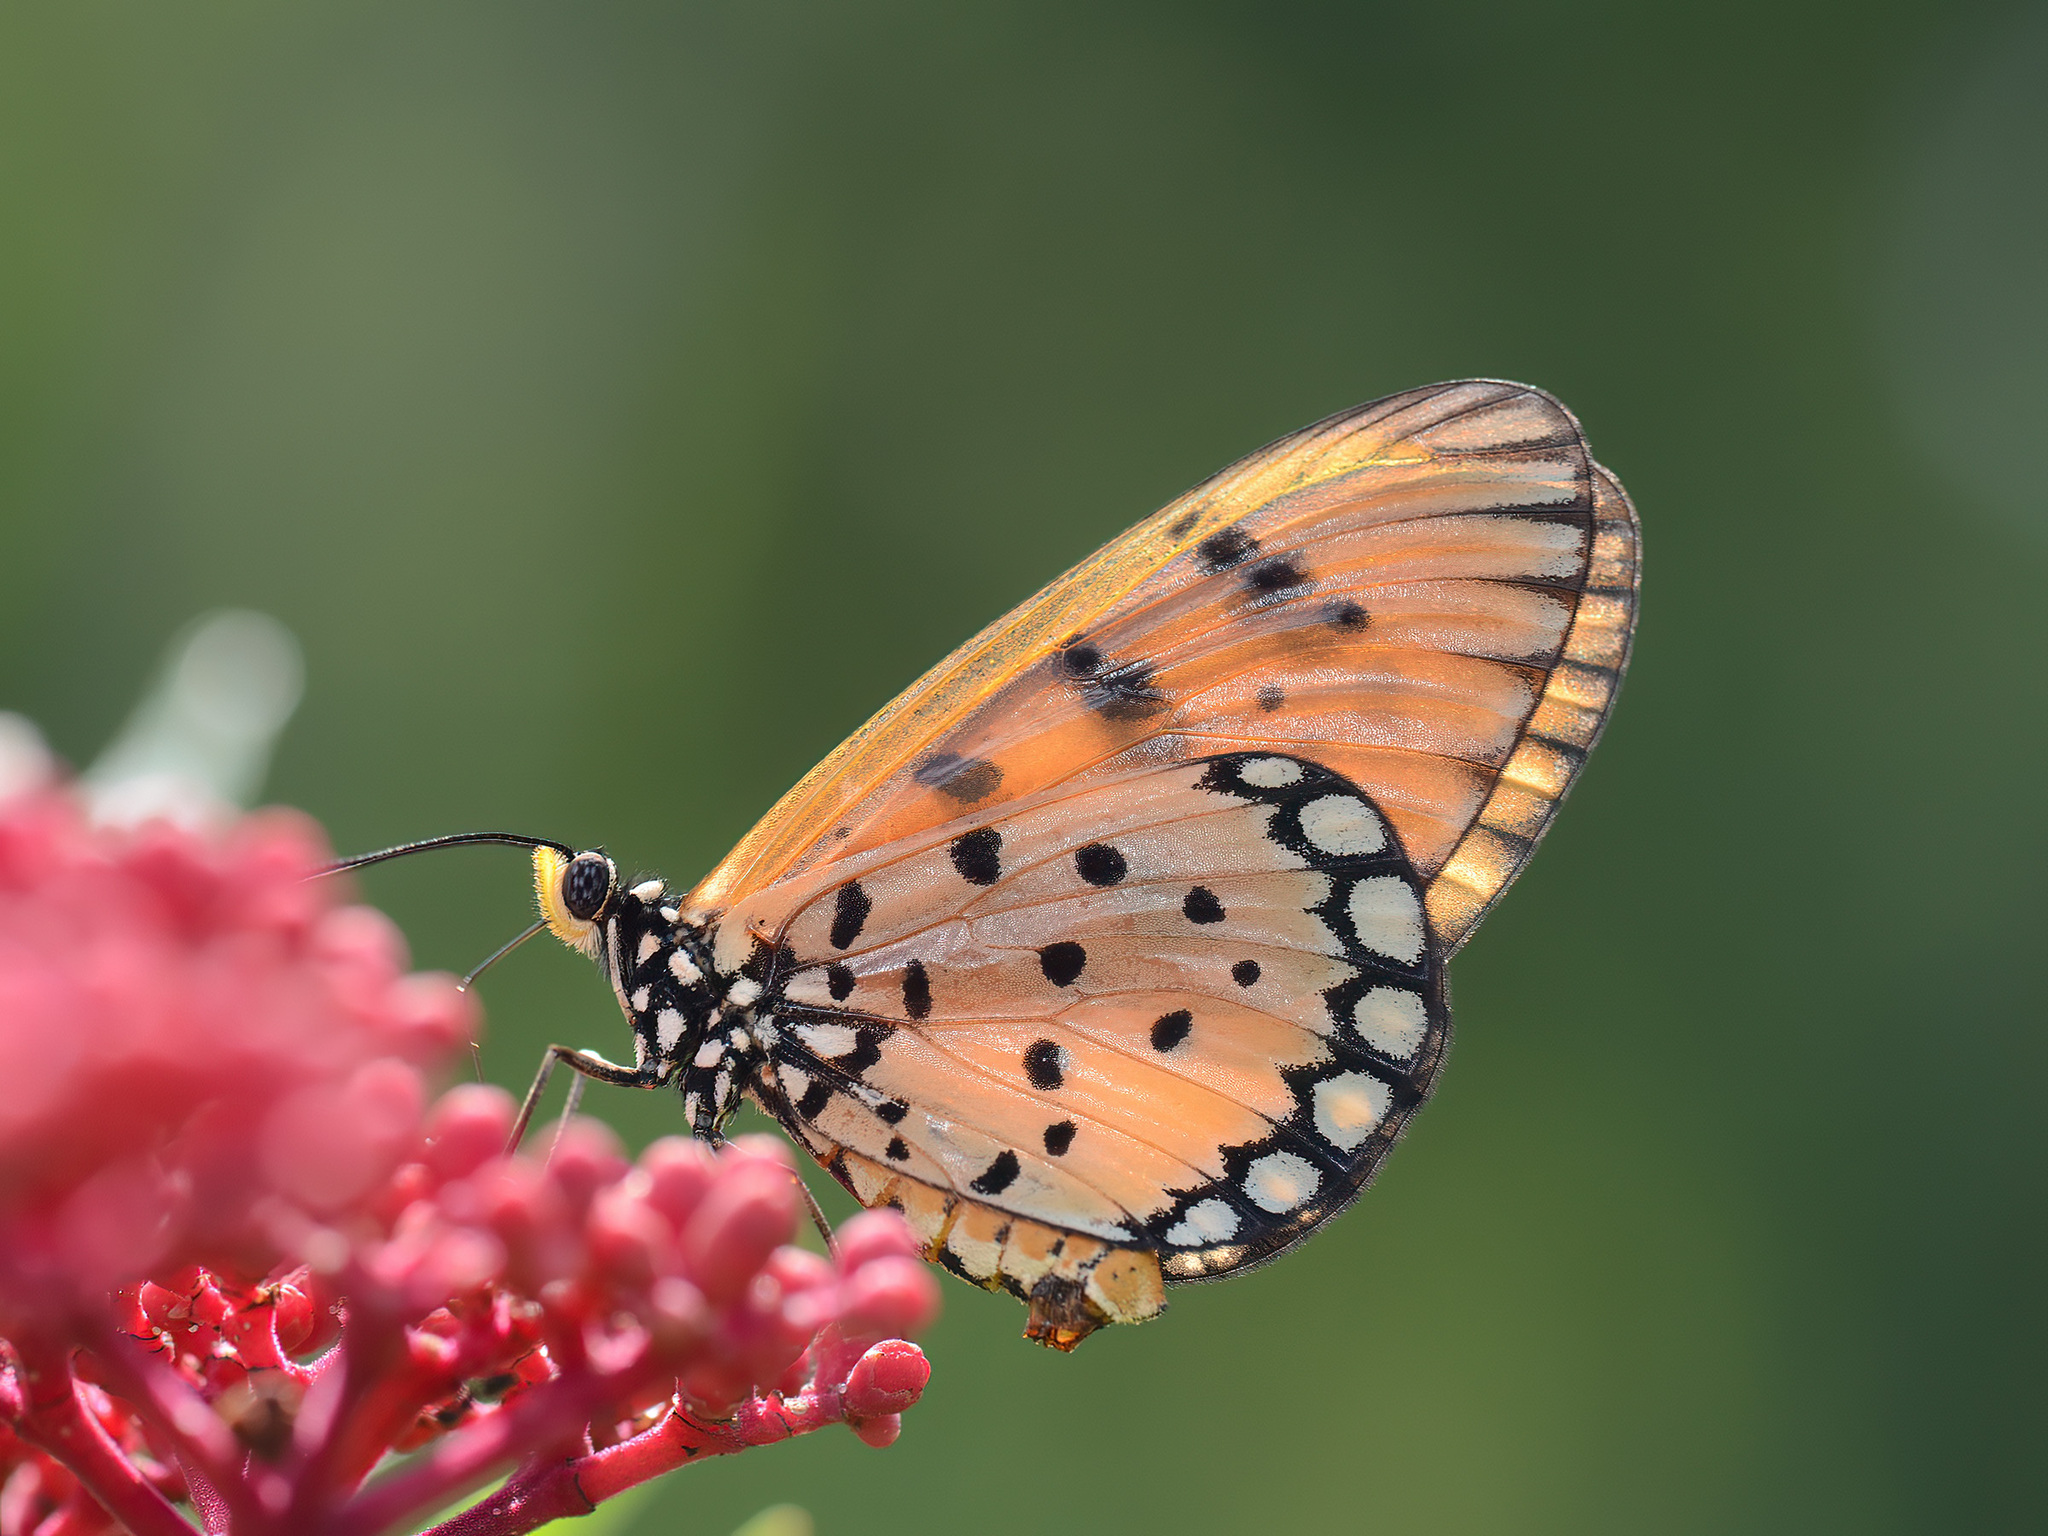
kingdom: Animalia
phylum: Arthropoda
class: Insecta
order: Lepidoptera
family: Nymphalidae
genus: Acraea
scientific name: Acraea terpsicore
